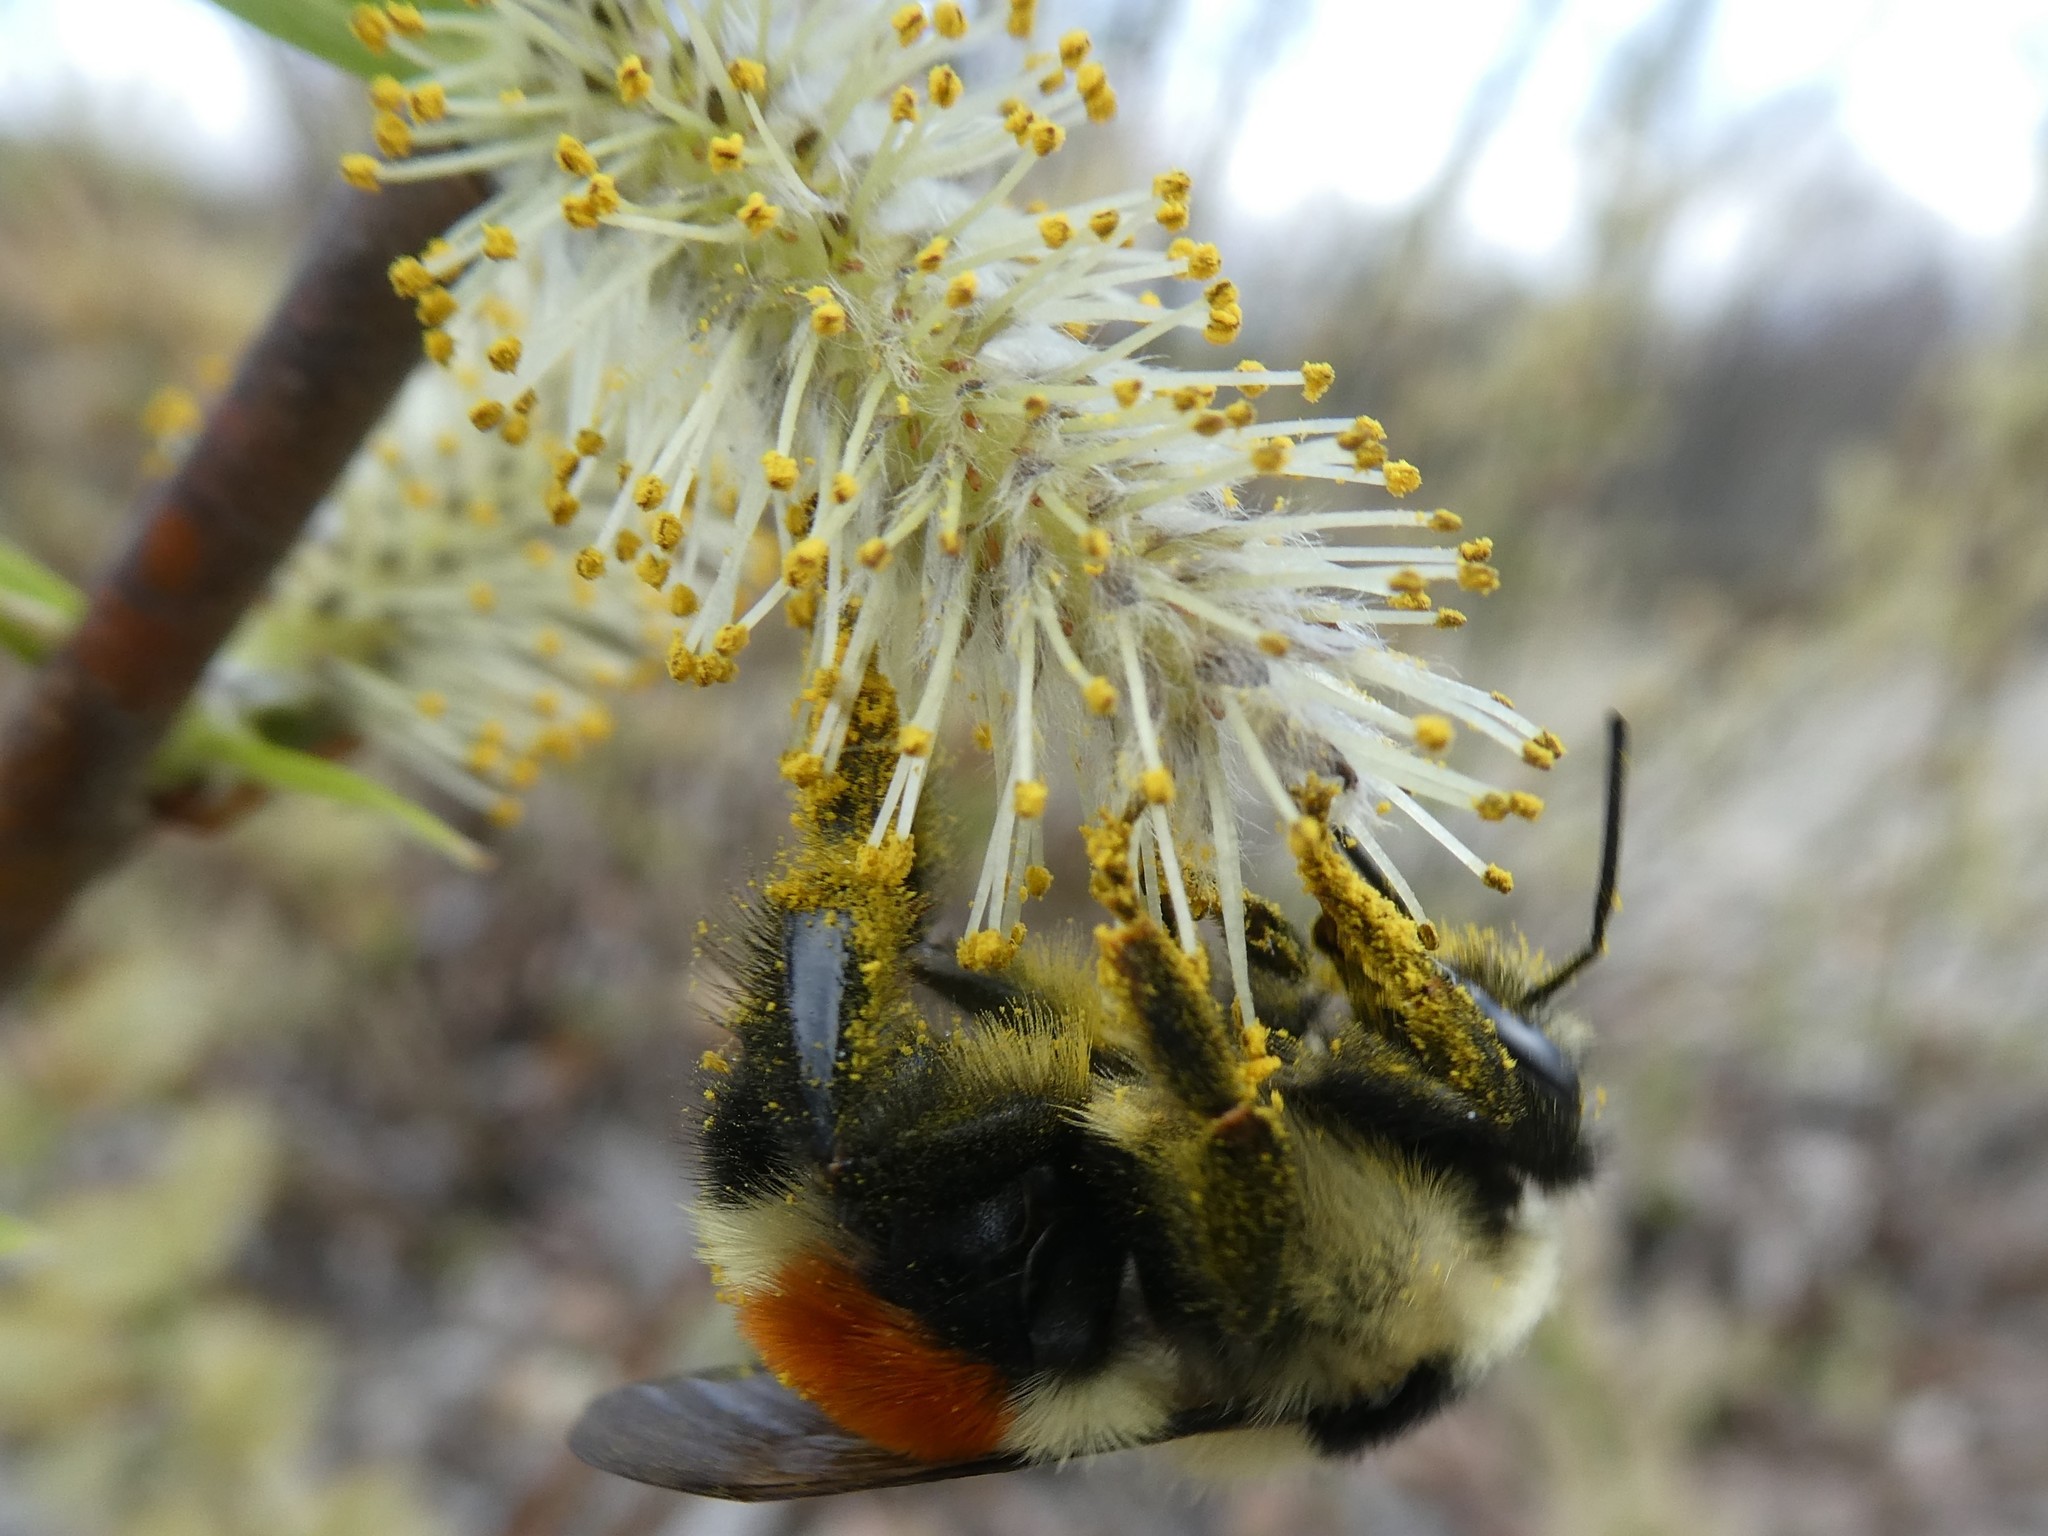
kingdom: Animalia
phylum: Arthropoda
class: Insecta
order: Hymenoptera
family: Apidae
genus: Bombus
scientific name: Bombus ternarius
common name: Tri-colored bumble bee
